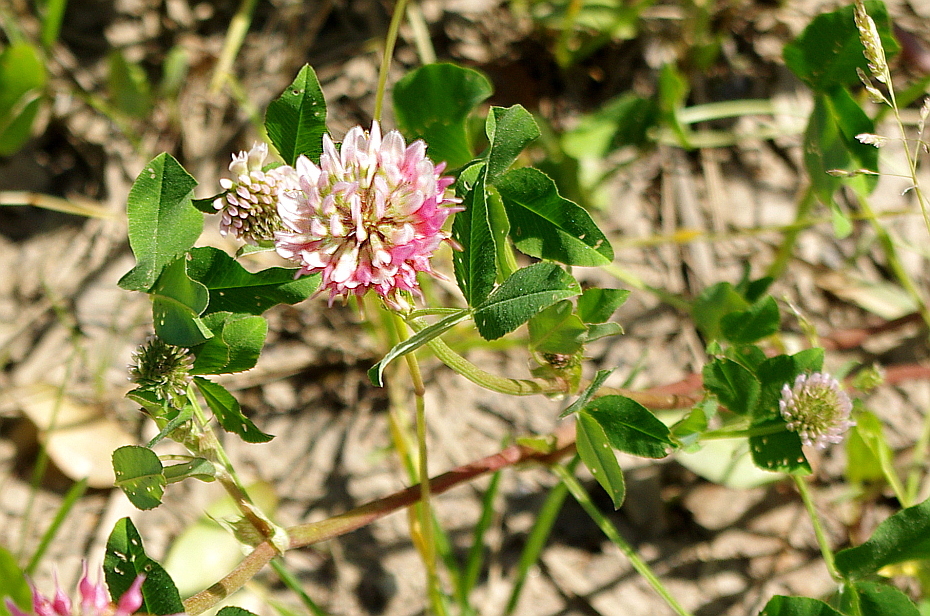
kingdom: Plantae
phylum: Tracheophyta
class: Magnoliopsida
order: Fabales
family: Fabaceae
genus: Trifolium
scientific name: Trifolium hybridum
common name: Alsike clover
